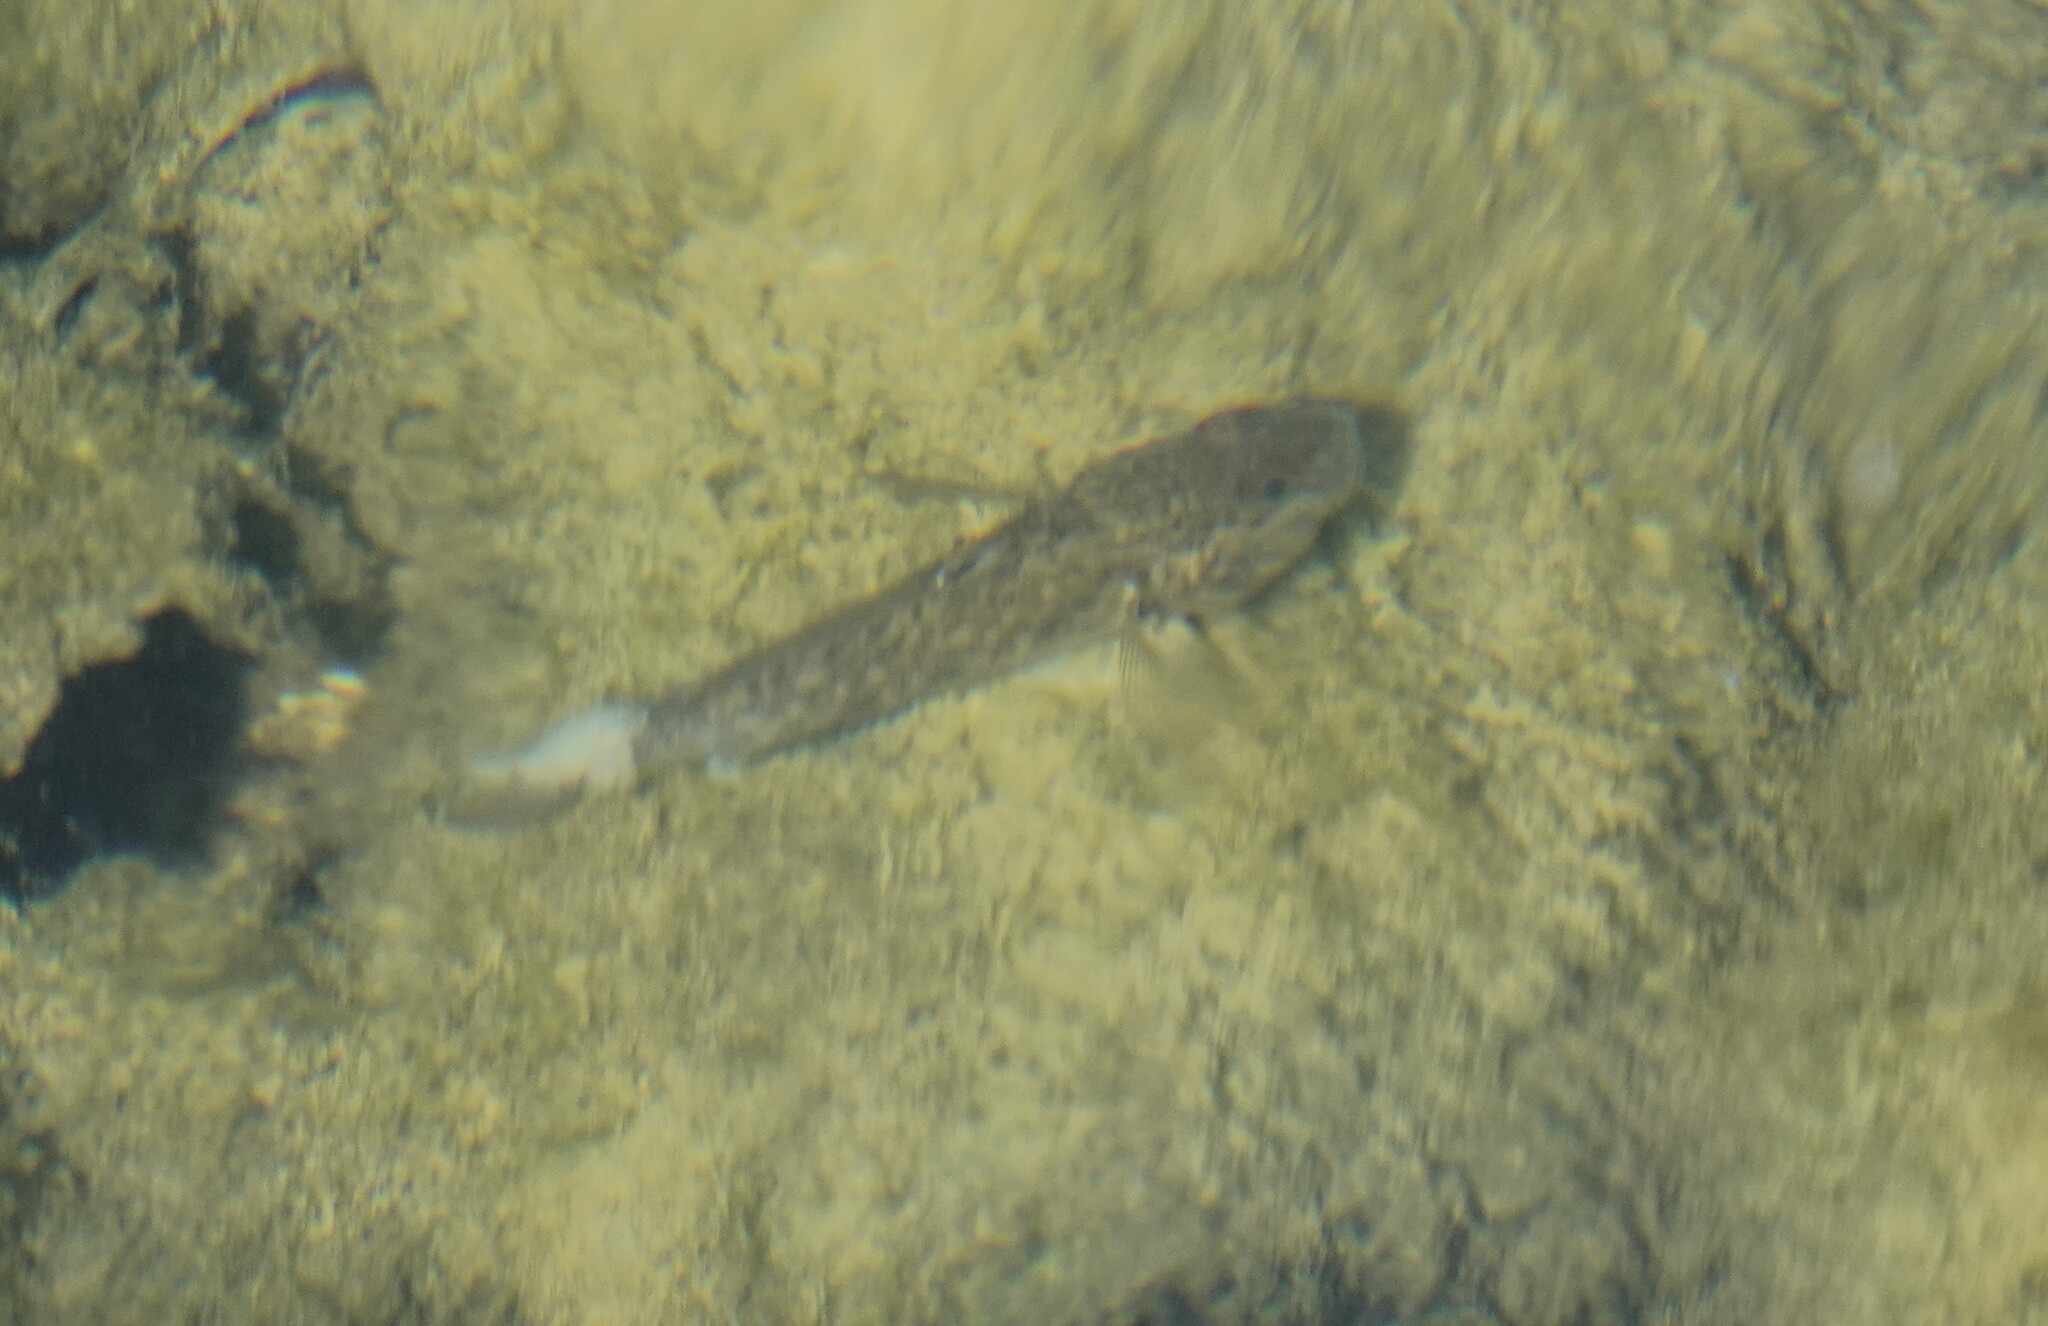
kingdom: Animalia
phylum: Chordata
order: Perciformes
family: Gobiidae
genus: Neogobius
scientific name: Neogobius melanostomus
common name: Round goby
